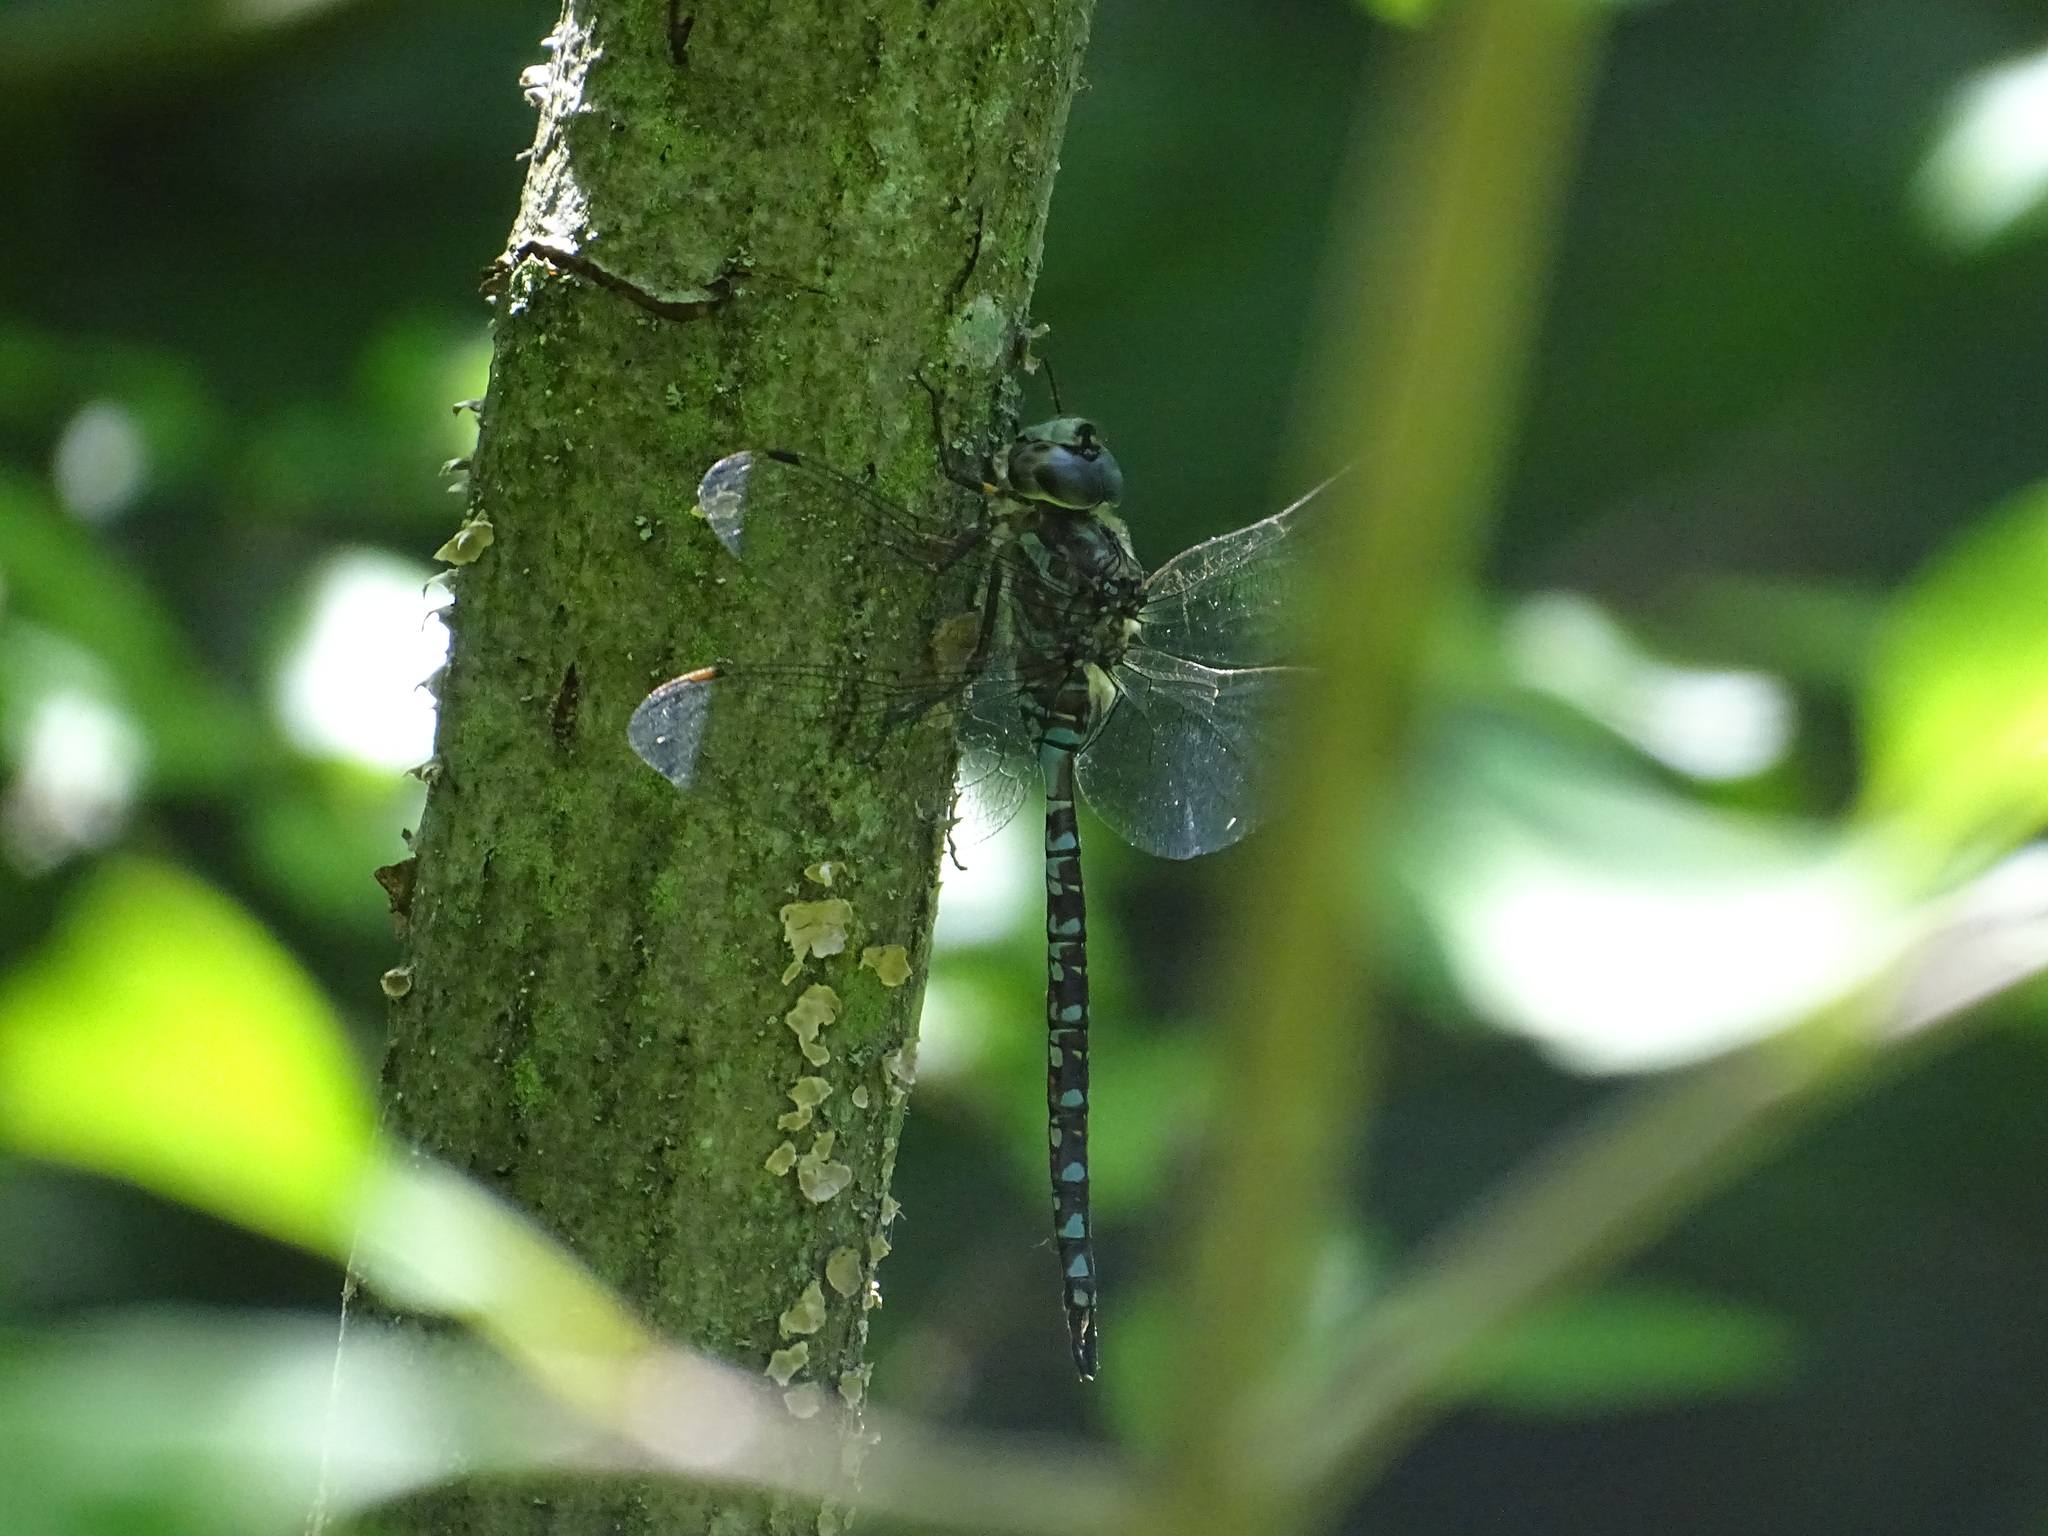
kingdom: Animalia
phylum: Arthropoda
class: Insecta
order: Odonata
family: Aeshnidae
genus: Aeshna
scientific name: Aeshna canadensis
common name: Canada darner
